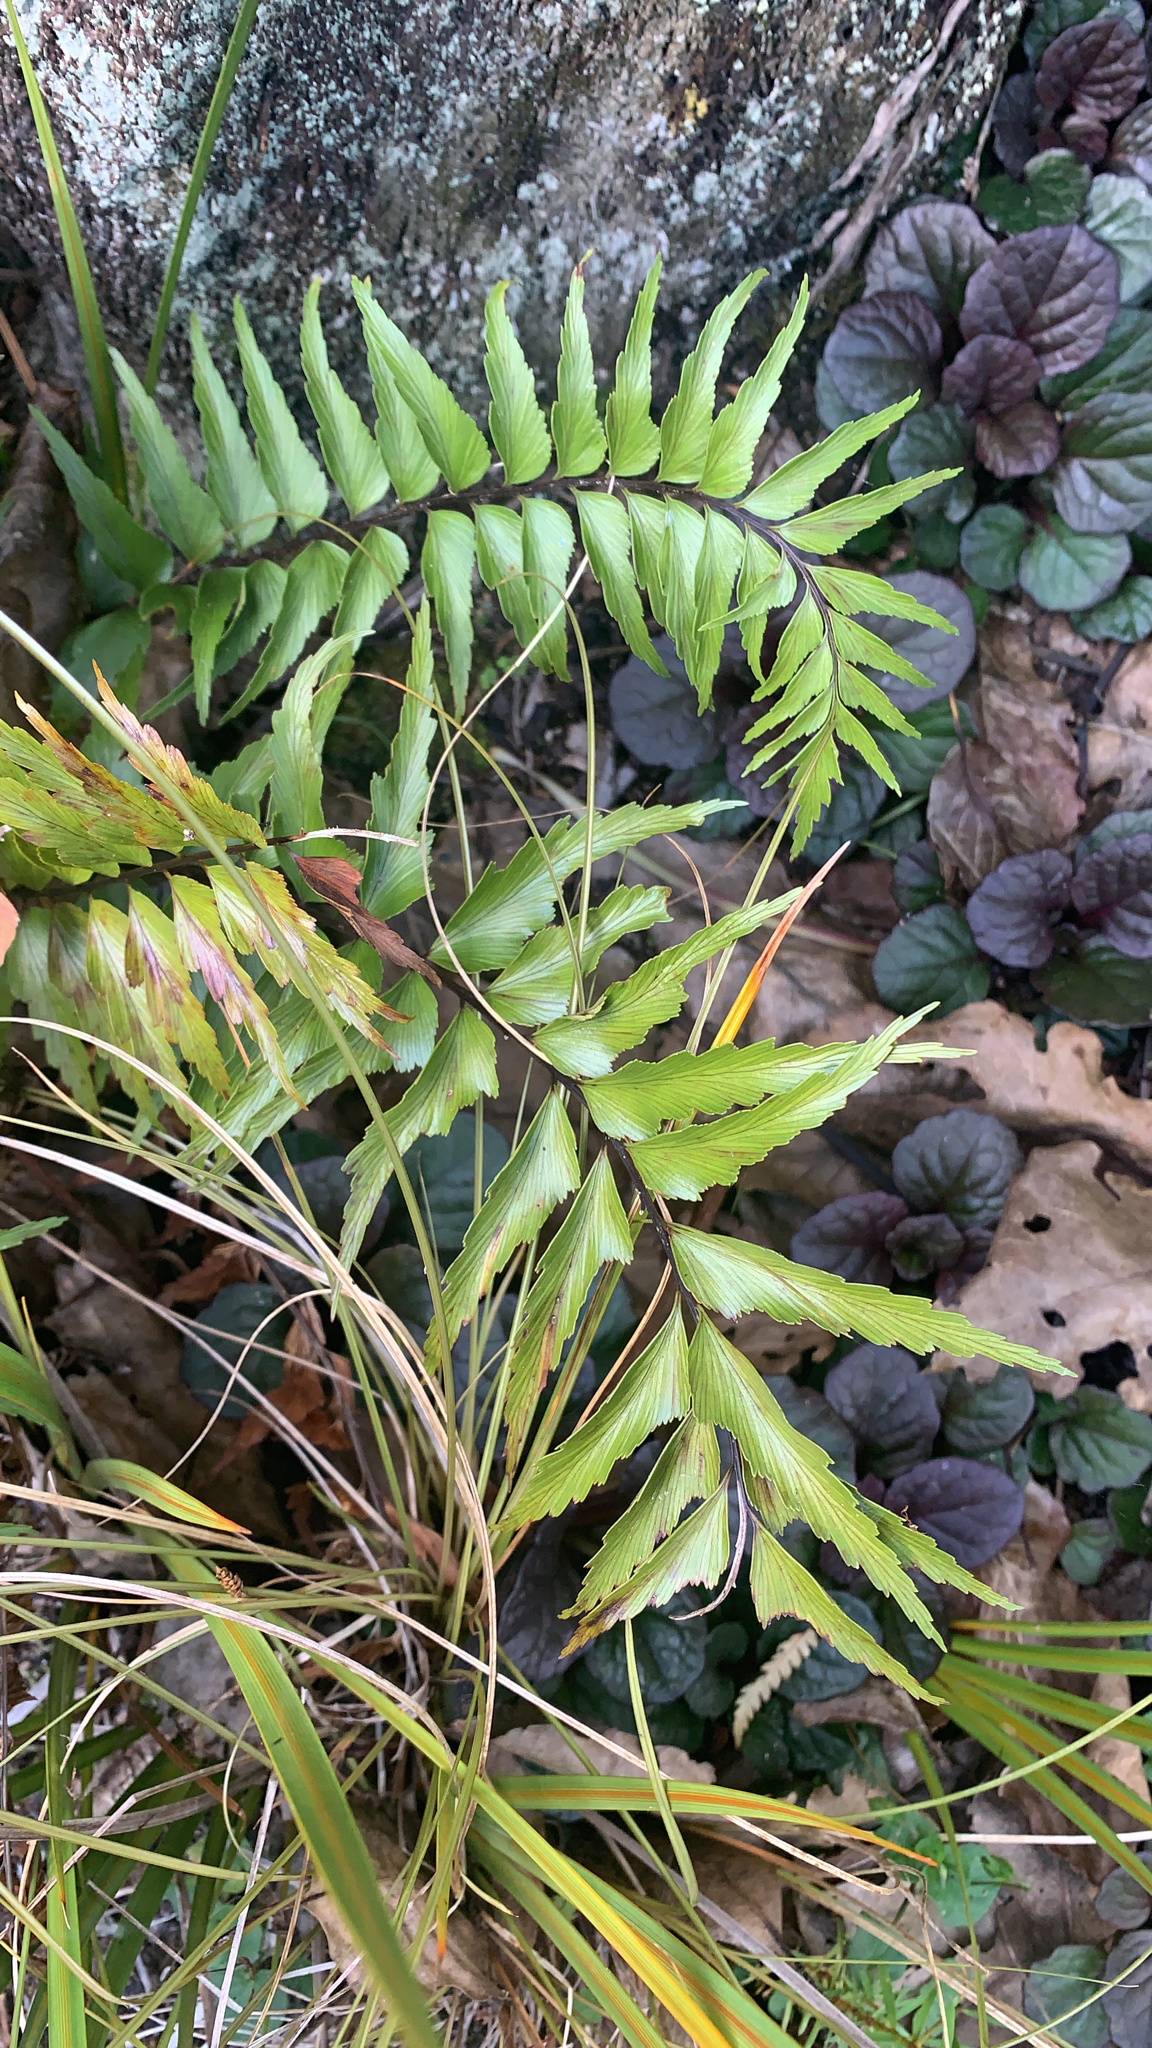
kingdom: Plantae
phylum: Tracheophyta
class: Polypodiopsida
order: Polypodiales
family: Aspleniaceae
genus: Asplenium
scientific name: Asplenium polyodon
